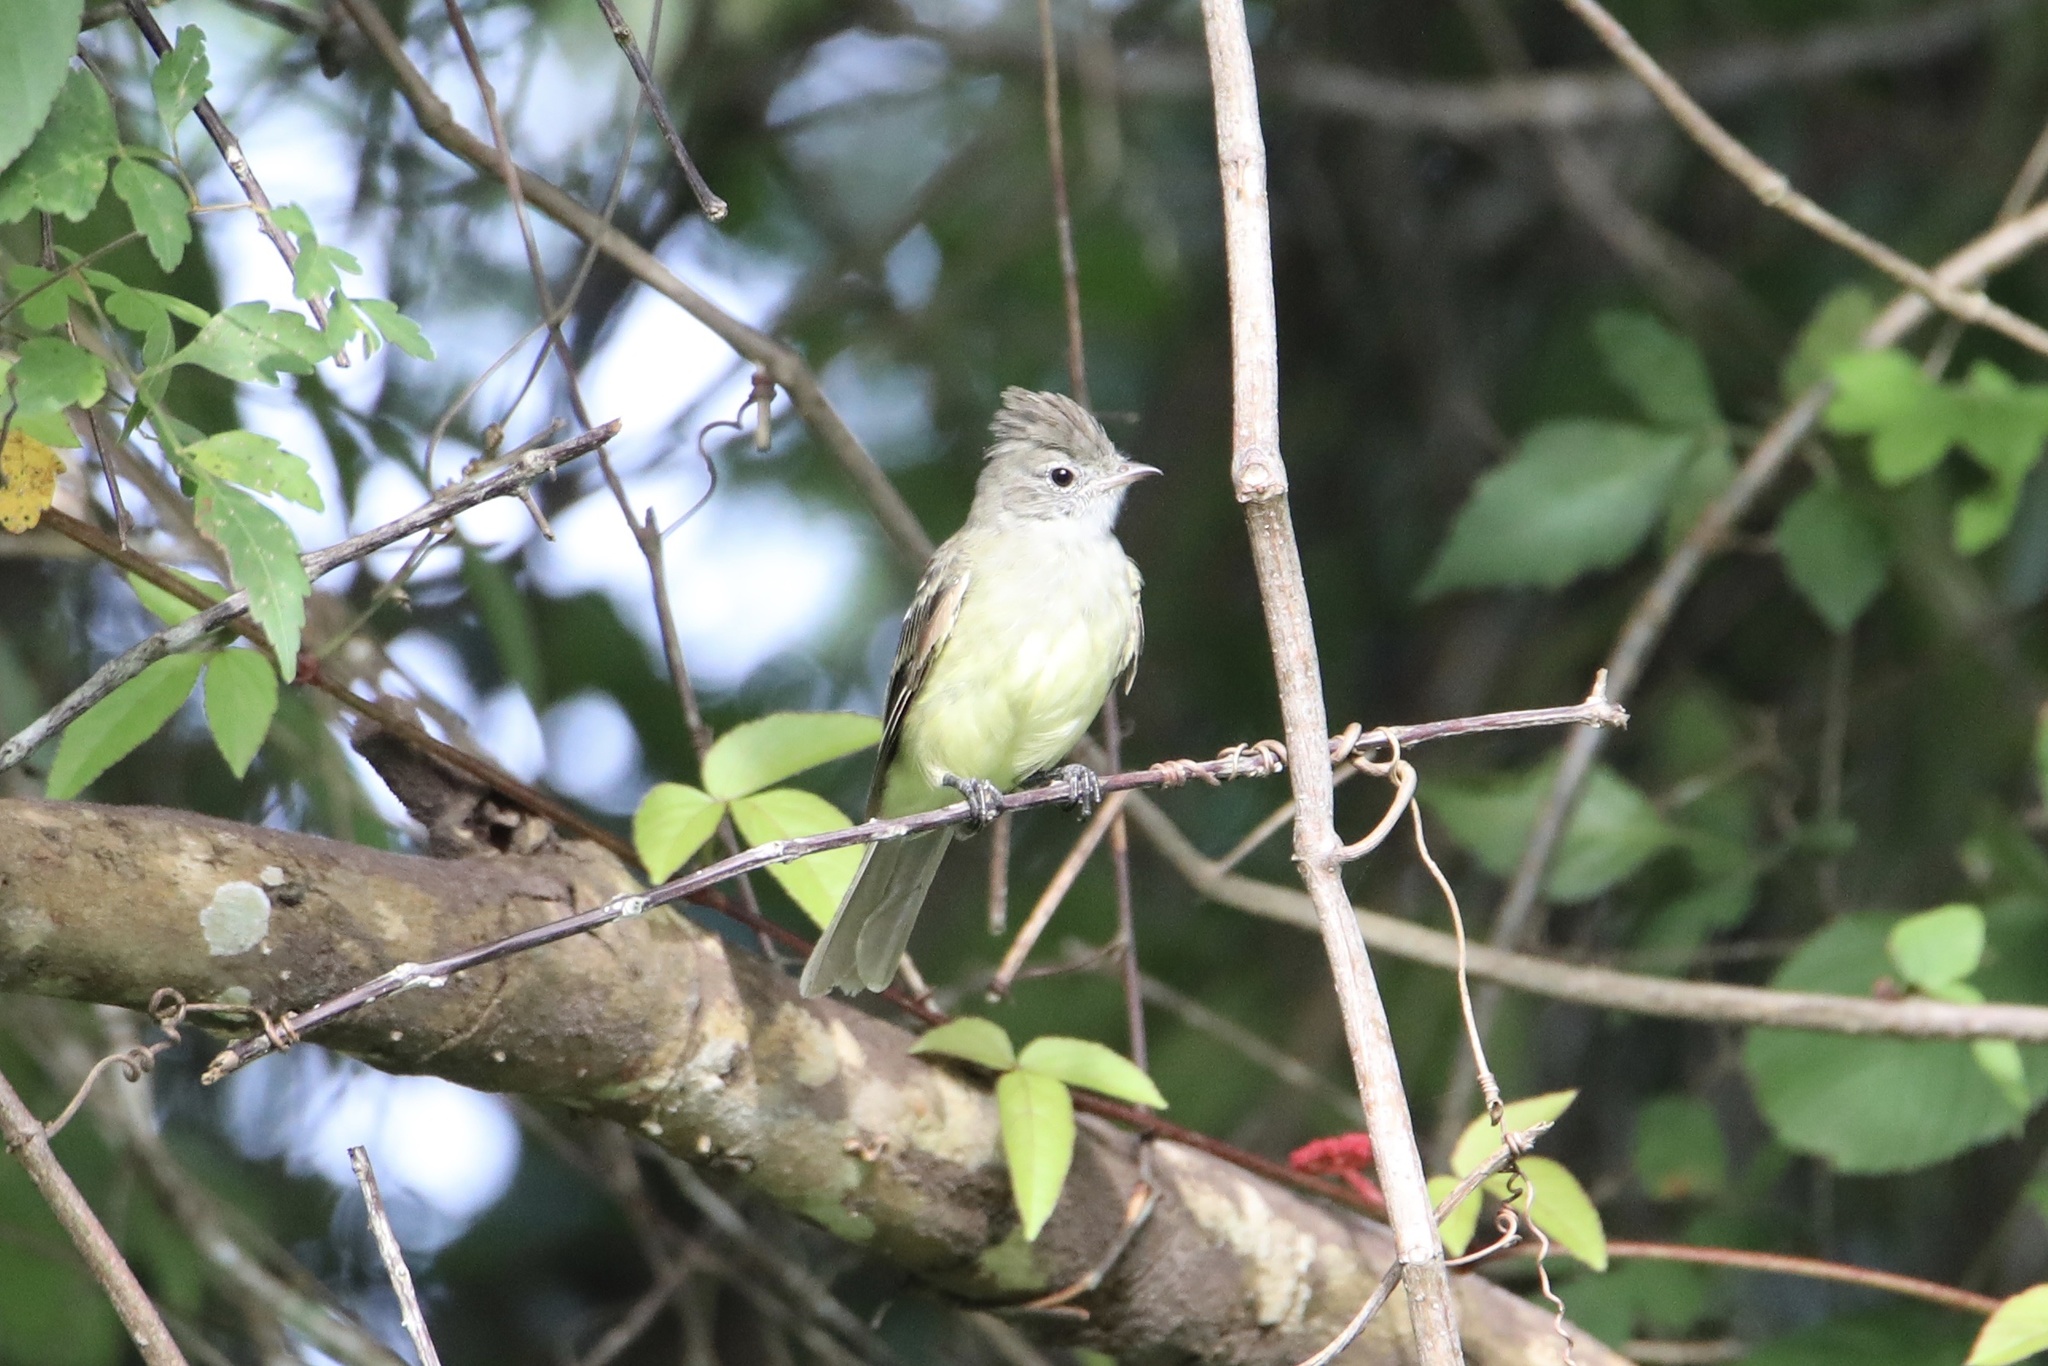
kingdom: Animalia
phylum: Chordata
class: Aves
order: Passeriformes
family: Tyrannidae
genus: Elaenia
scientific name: Elaenia flavogaster
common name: Yellow-bellied elaenia
